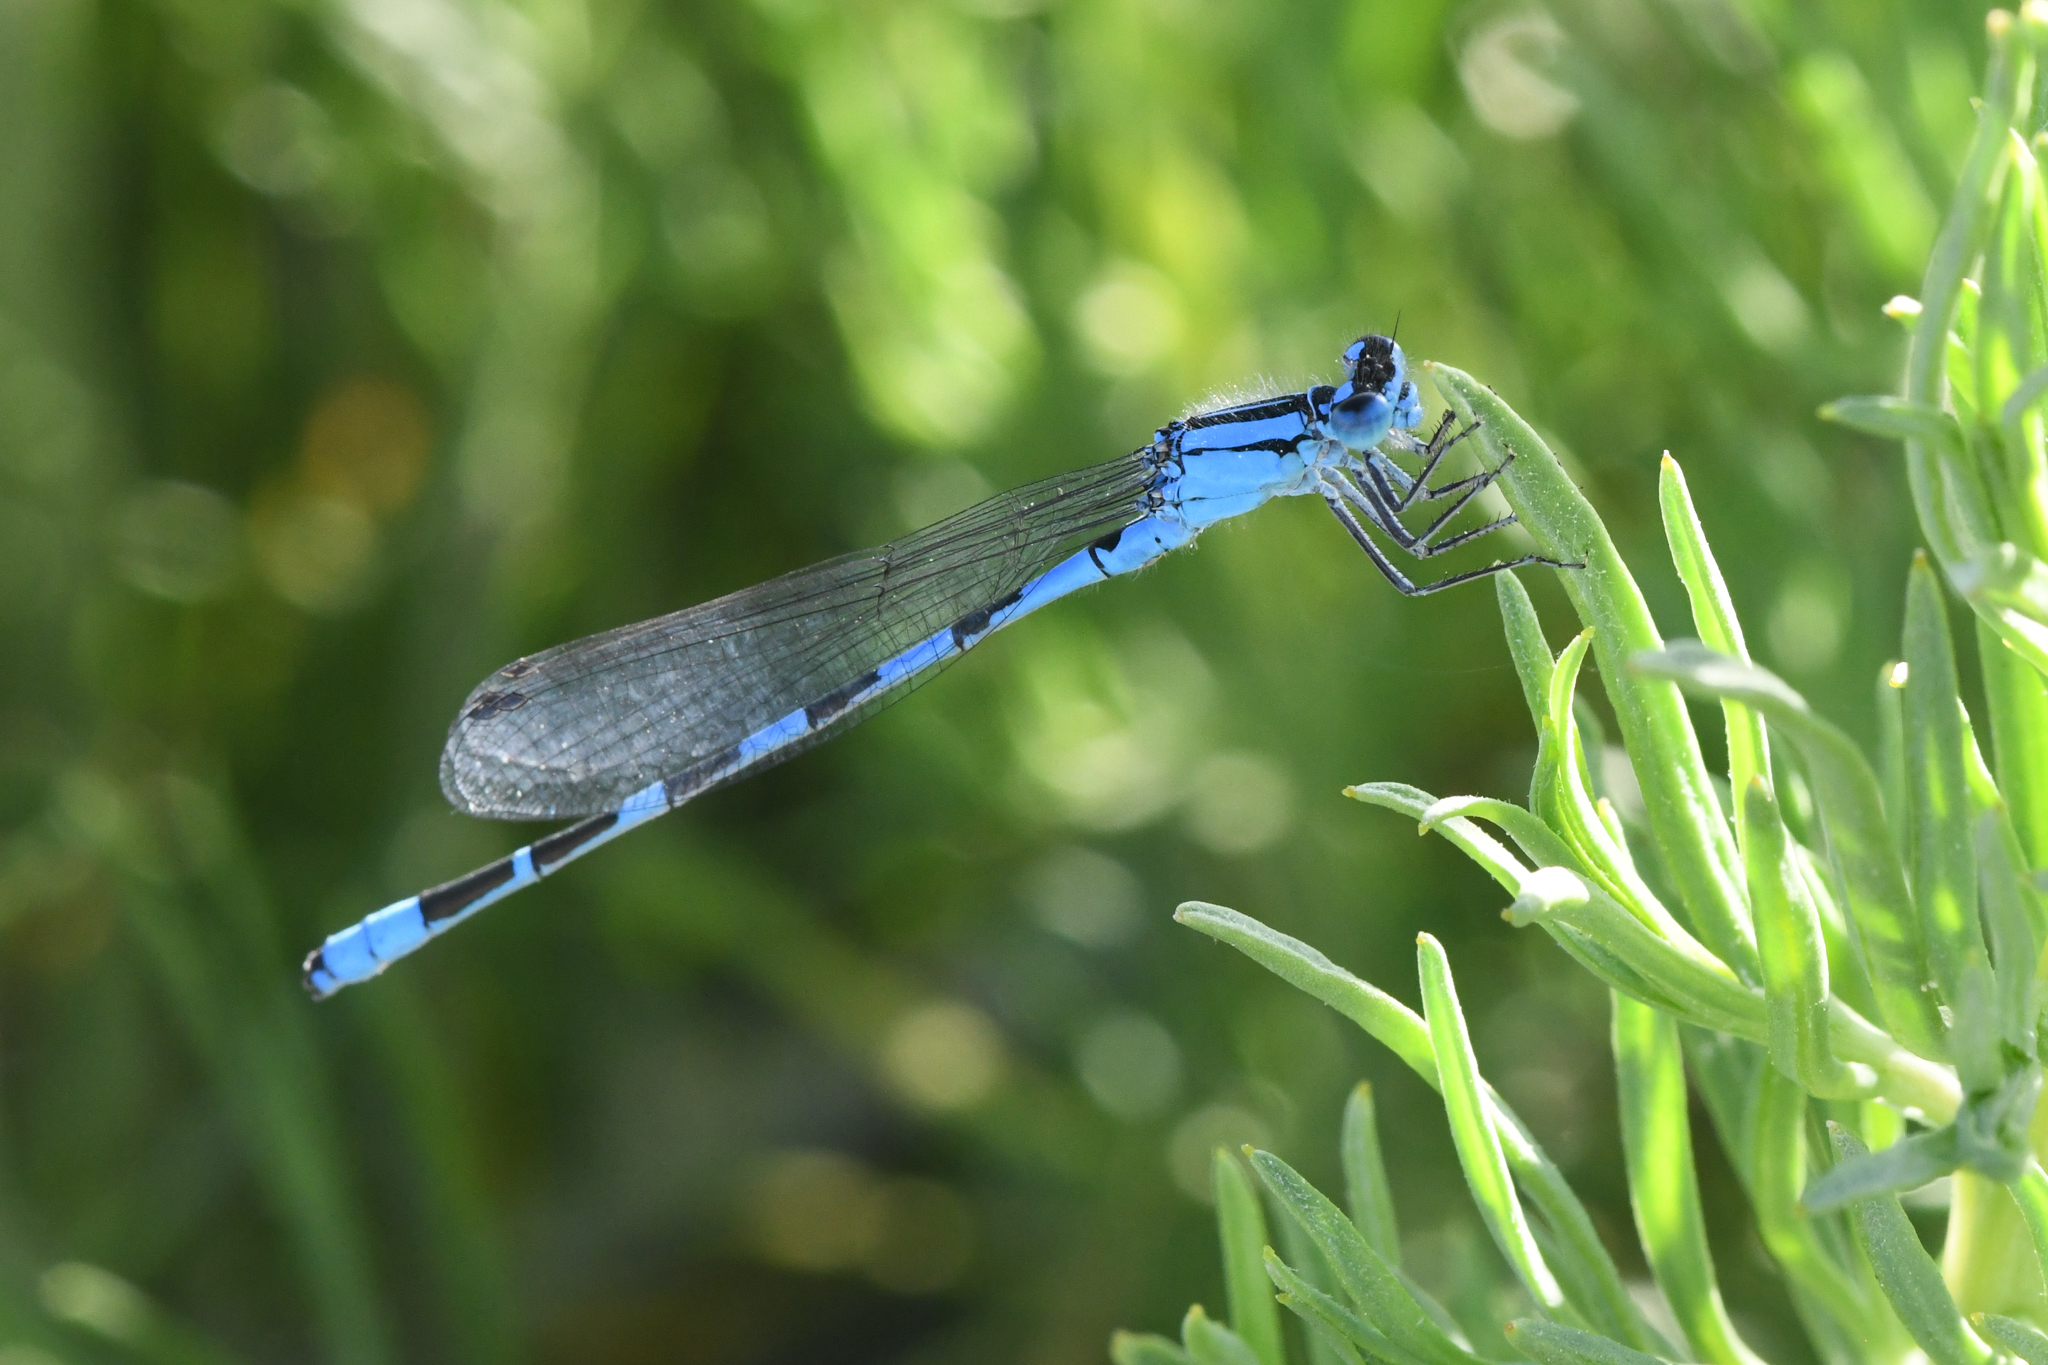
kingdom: Animalia
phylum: Arthropoda
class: Insecta
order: Odonata
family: Coenagrionidae
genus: Enallagma
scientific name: Enallagma clausum
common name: Alkali bluet
